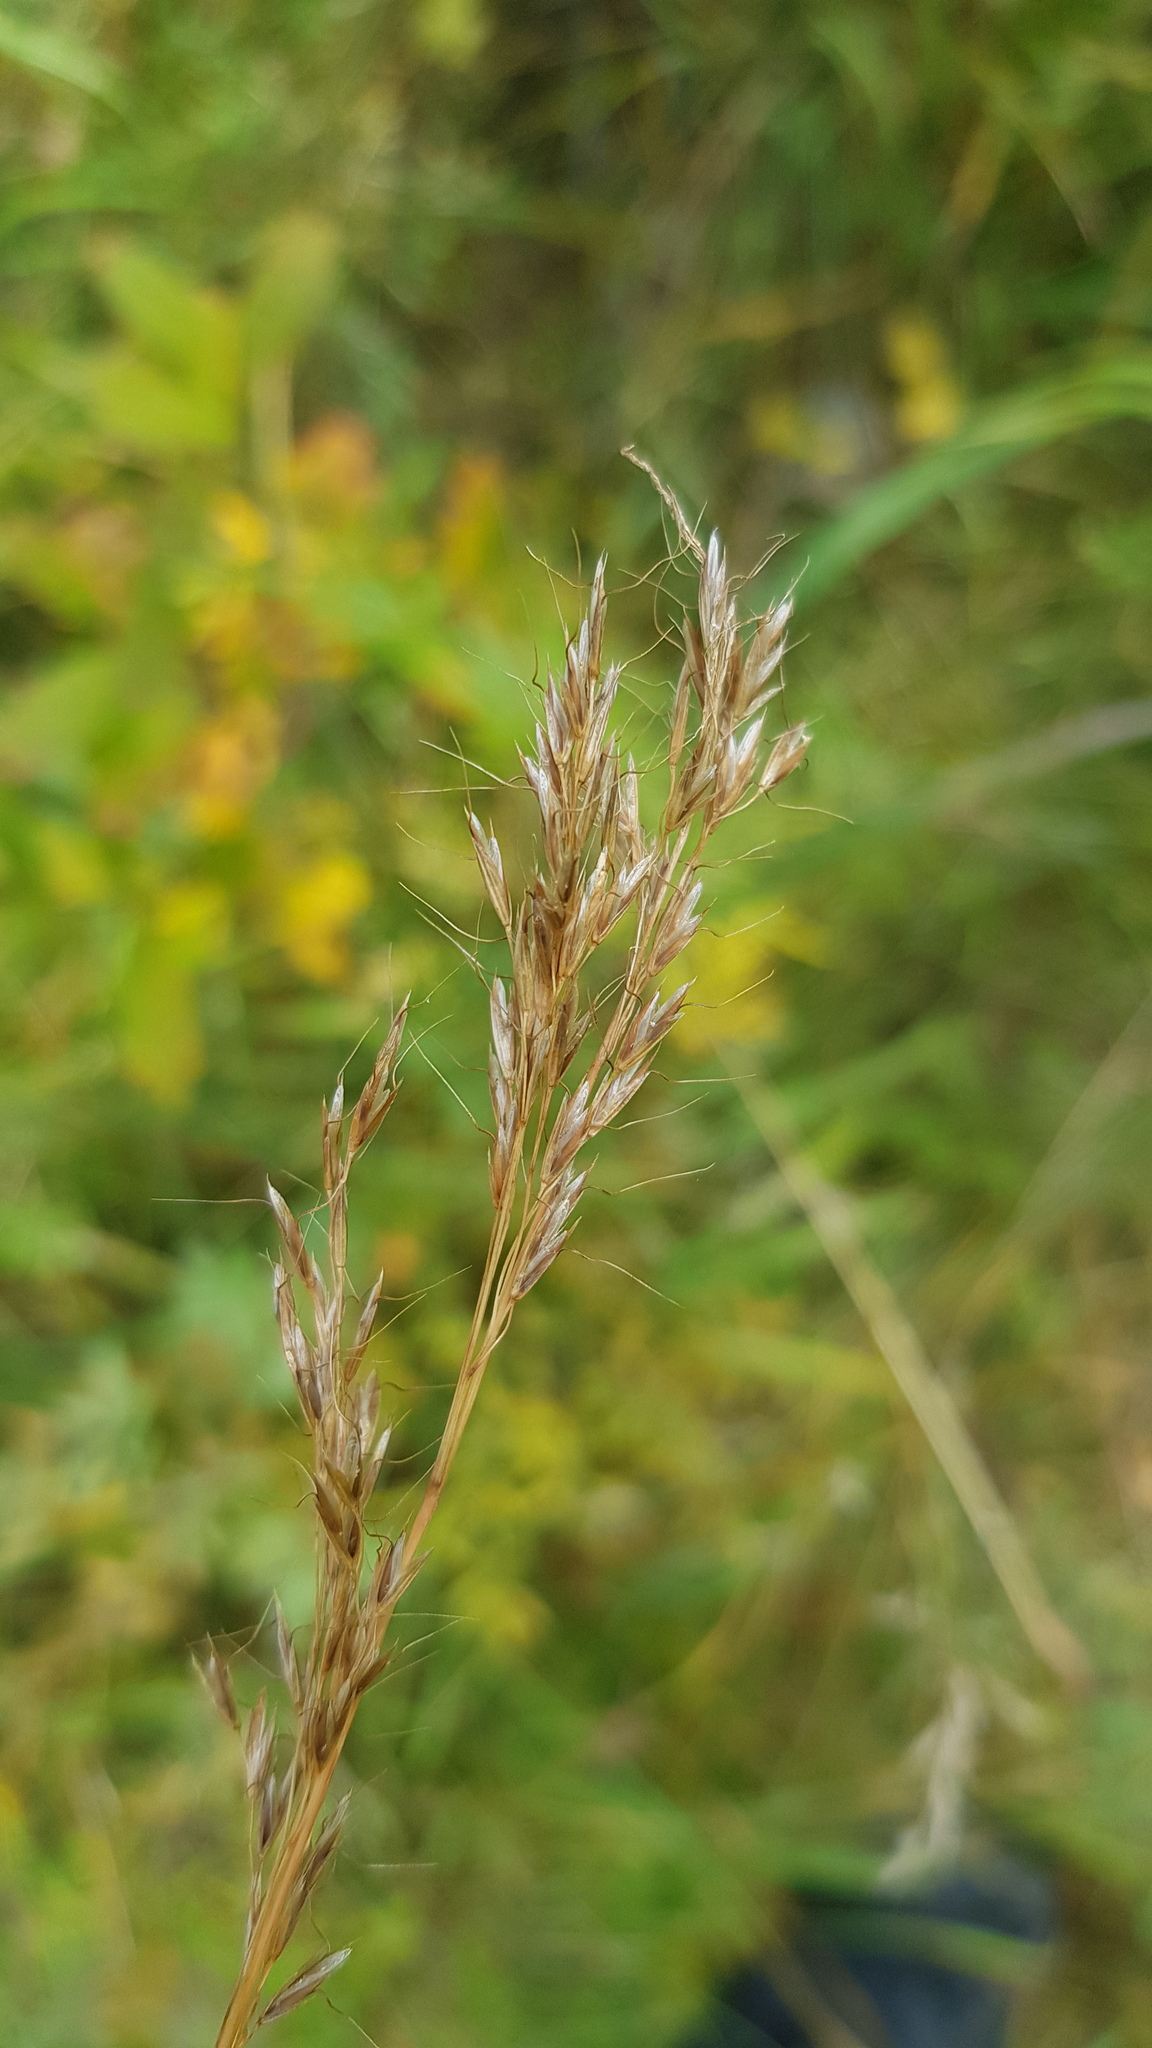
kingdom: Plantae
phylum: Tracheophyta
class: Liliopsida
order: Poales
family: Poaceae
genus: Achnatherum
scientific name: Achnatherum sibiricum
